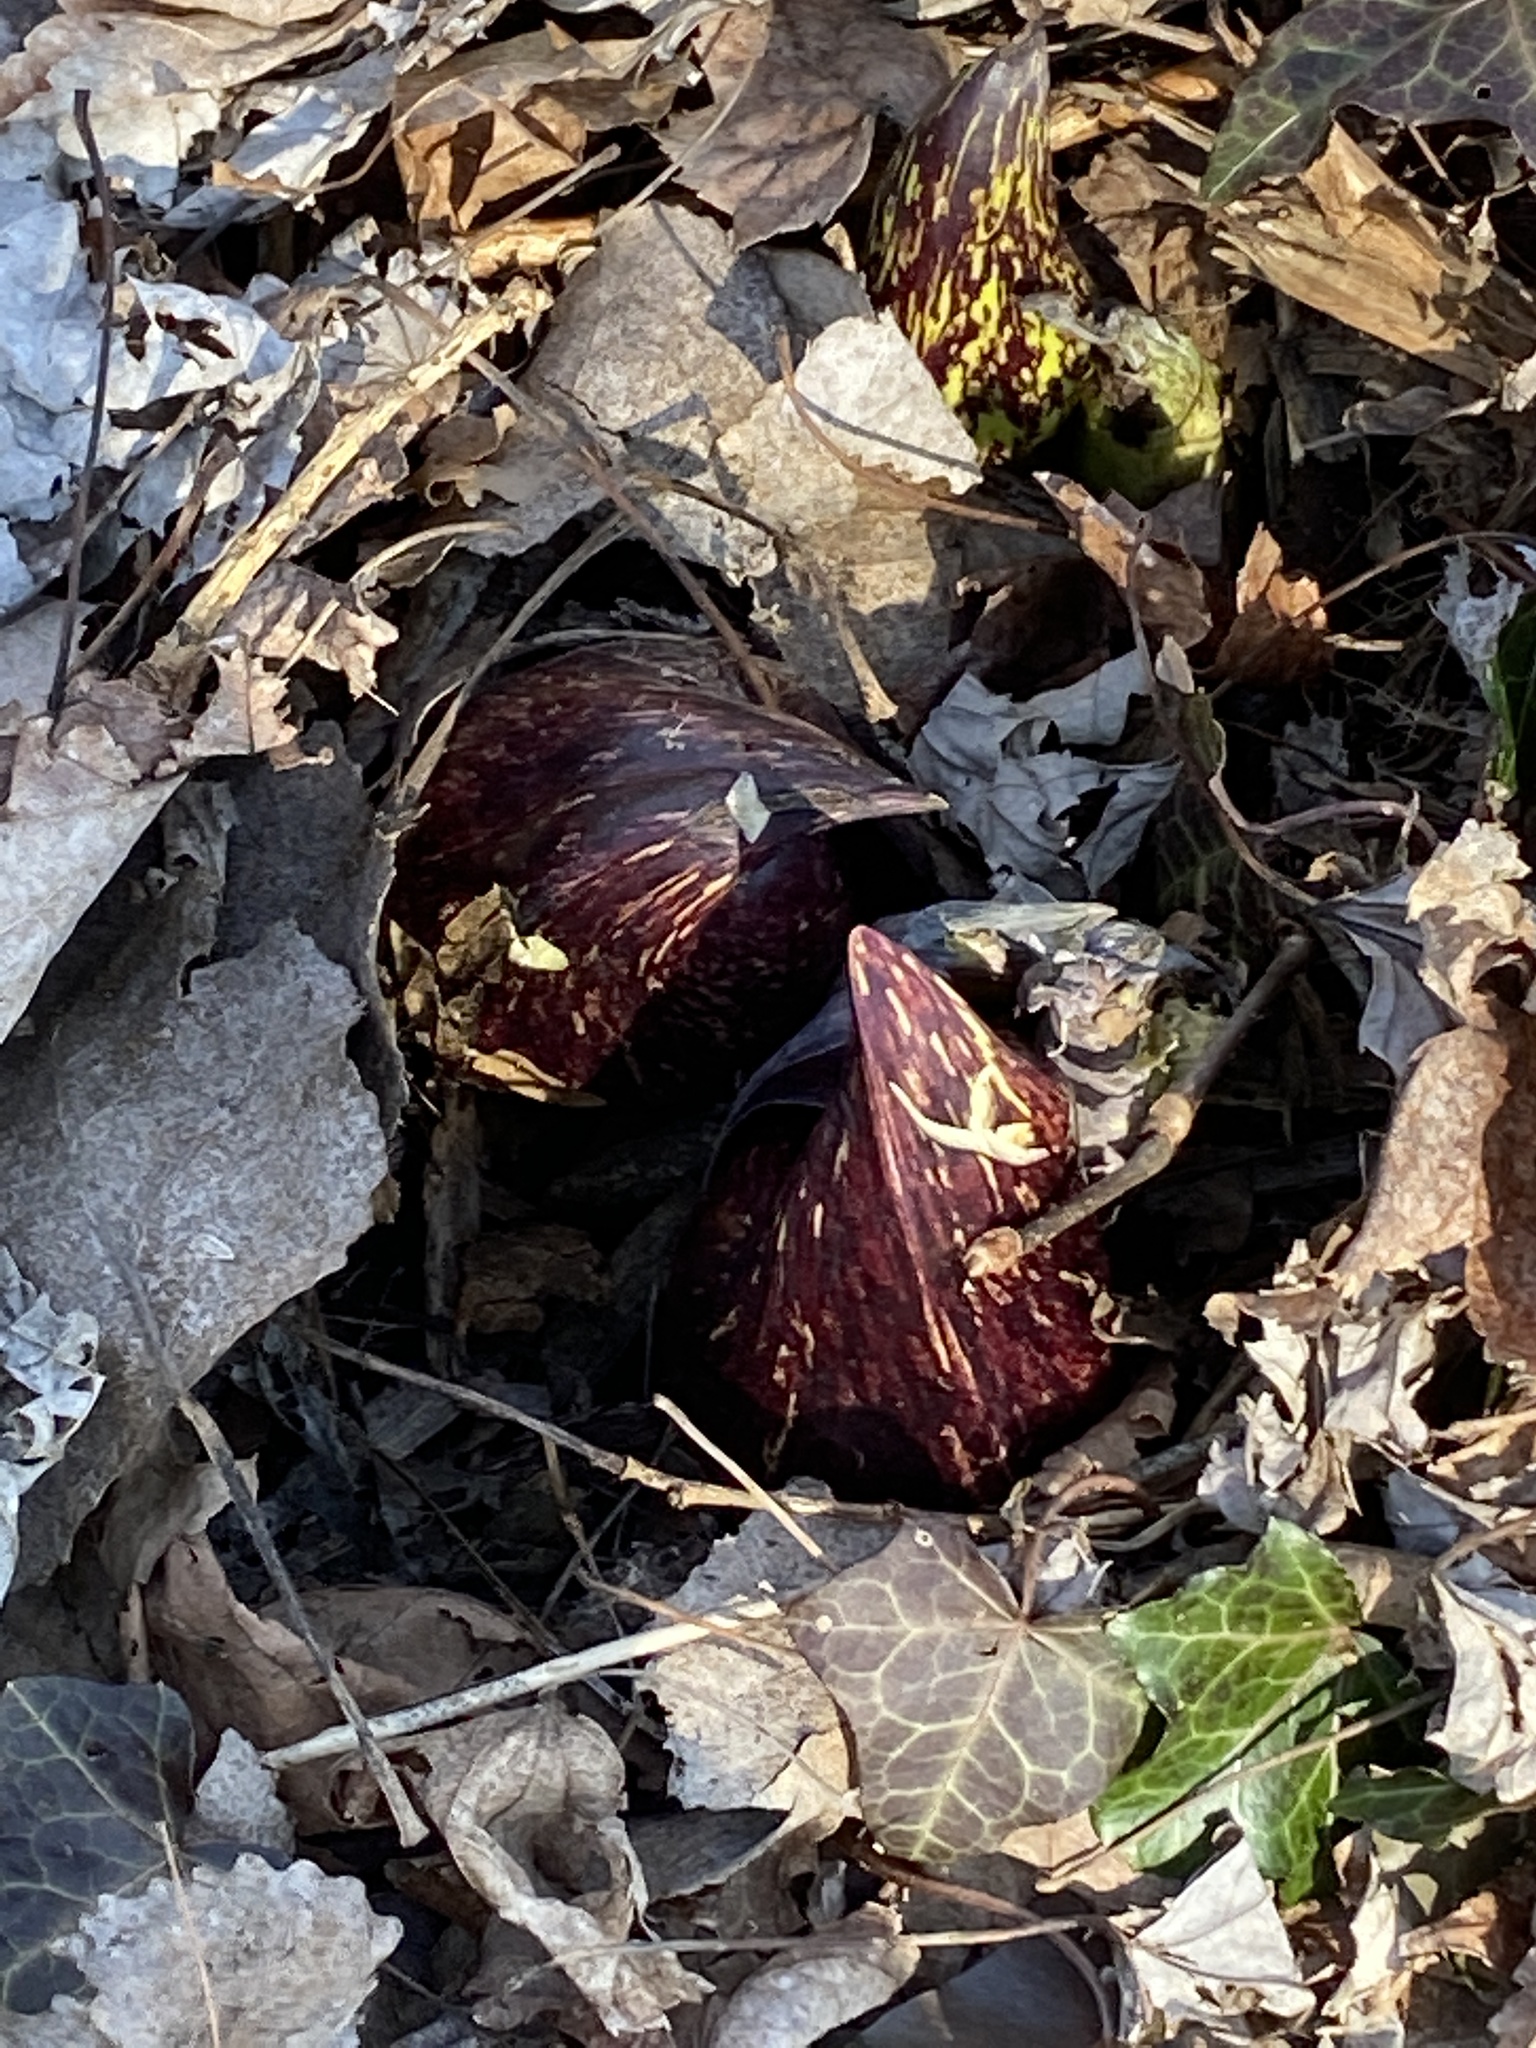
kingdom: Plantae
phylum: Tracheophyta
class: Liliopsida
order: Alismatales
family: Araceae
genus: Symplocarpus
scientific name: Symplocarpus foetidus
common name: Eastern skunk cabbage
